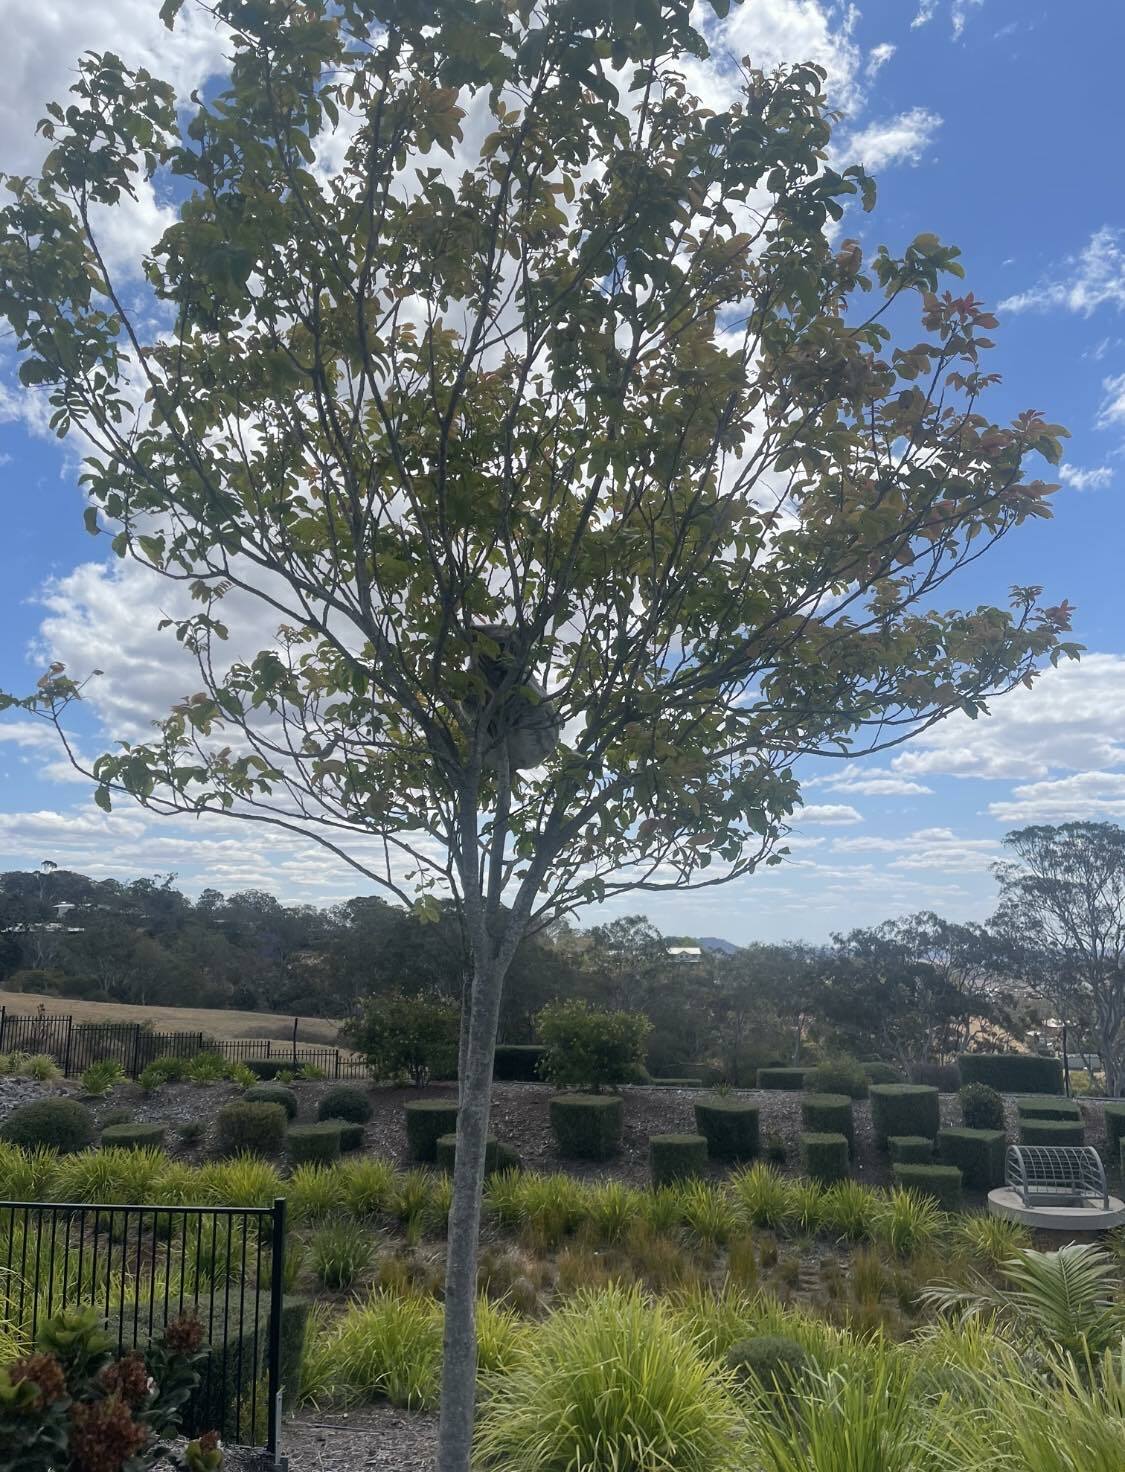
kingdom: Animalia
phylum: Chordata
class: Mammalia
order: Diprotodontia
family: Phascolarctidae
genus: Phascolarctos
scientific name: Phascolarctos cinereus
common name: Koala
